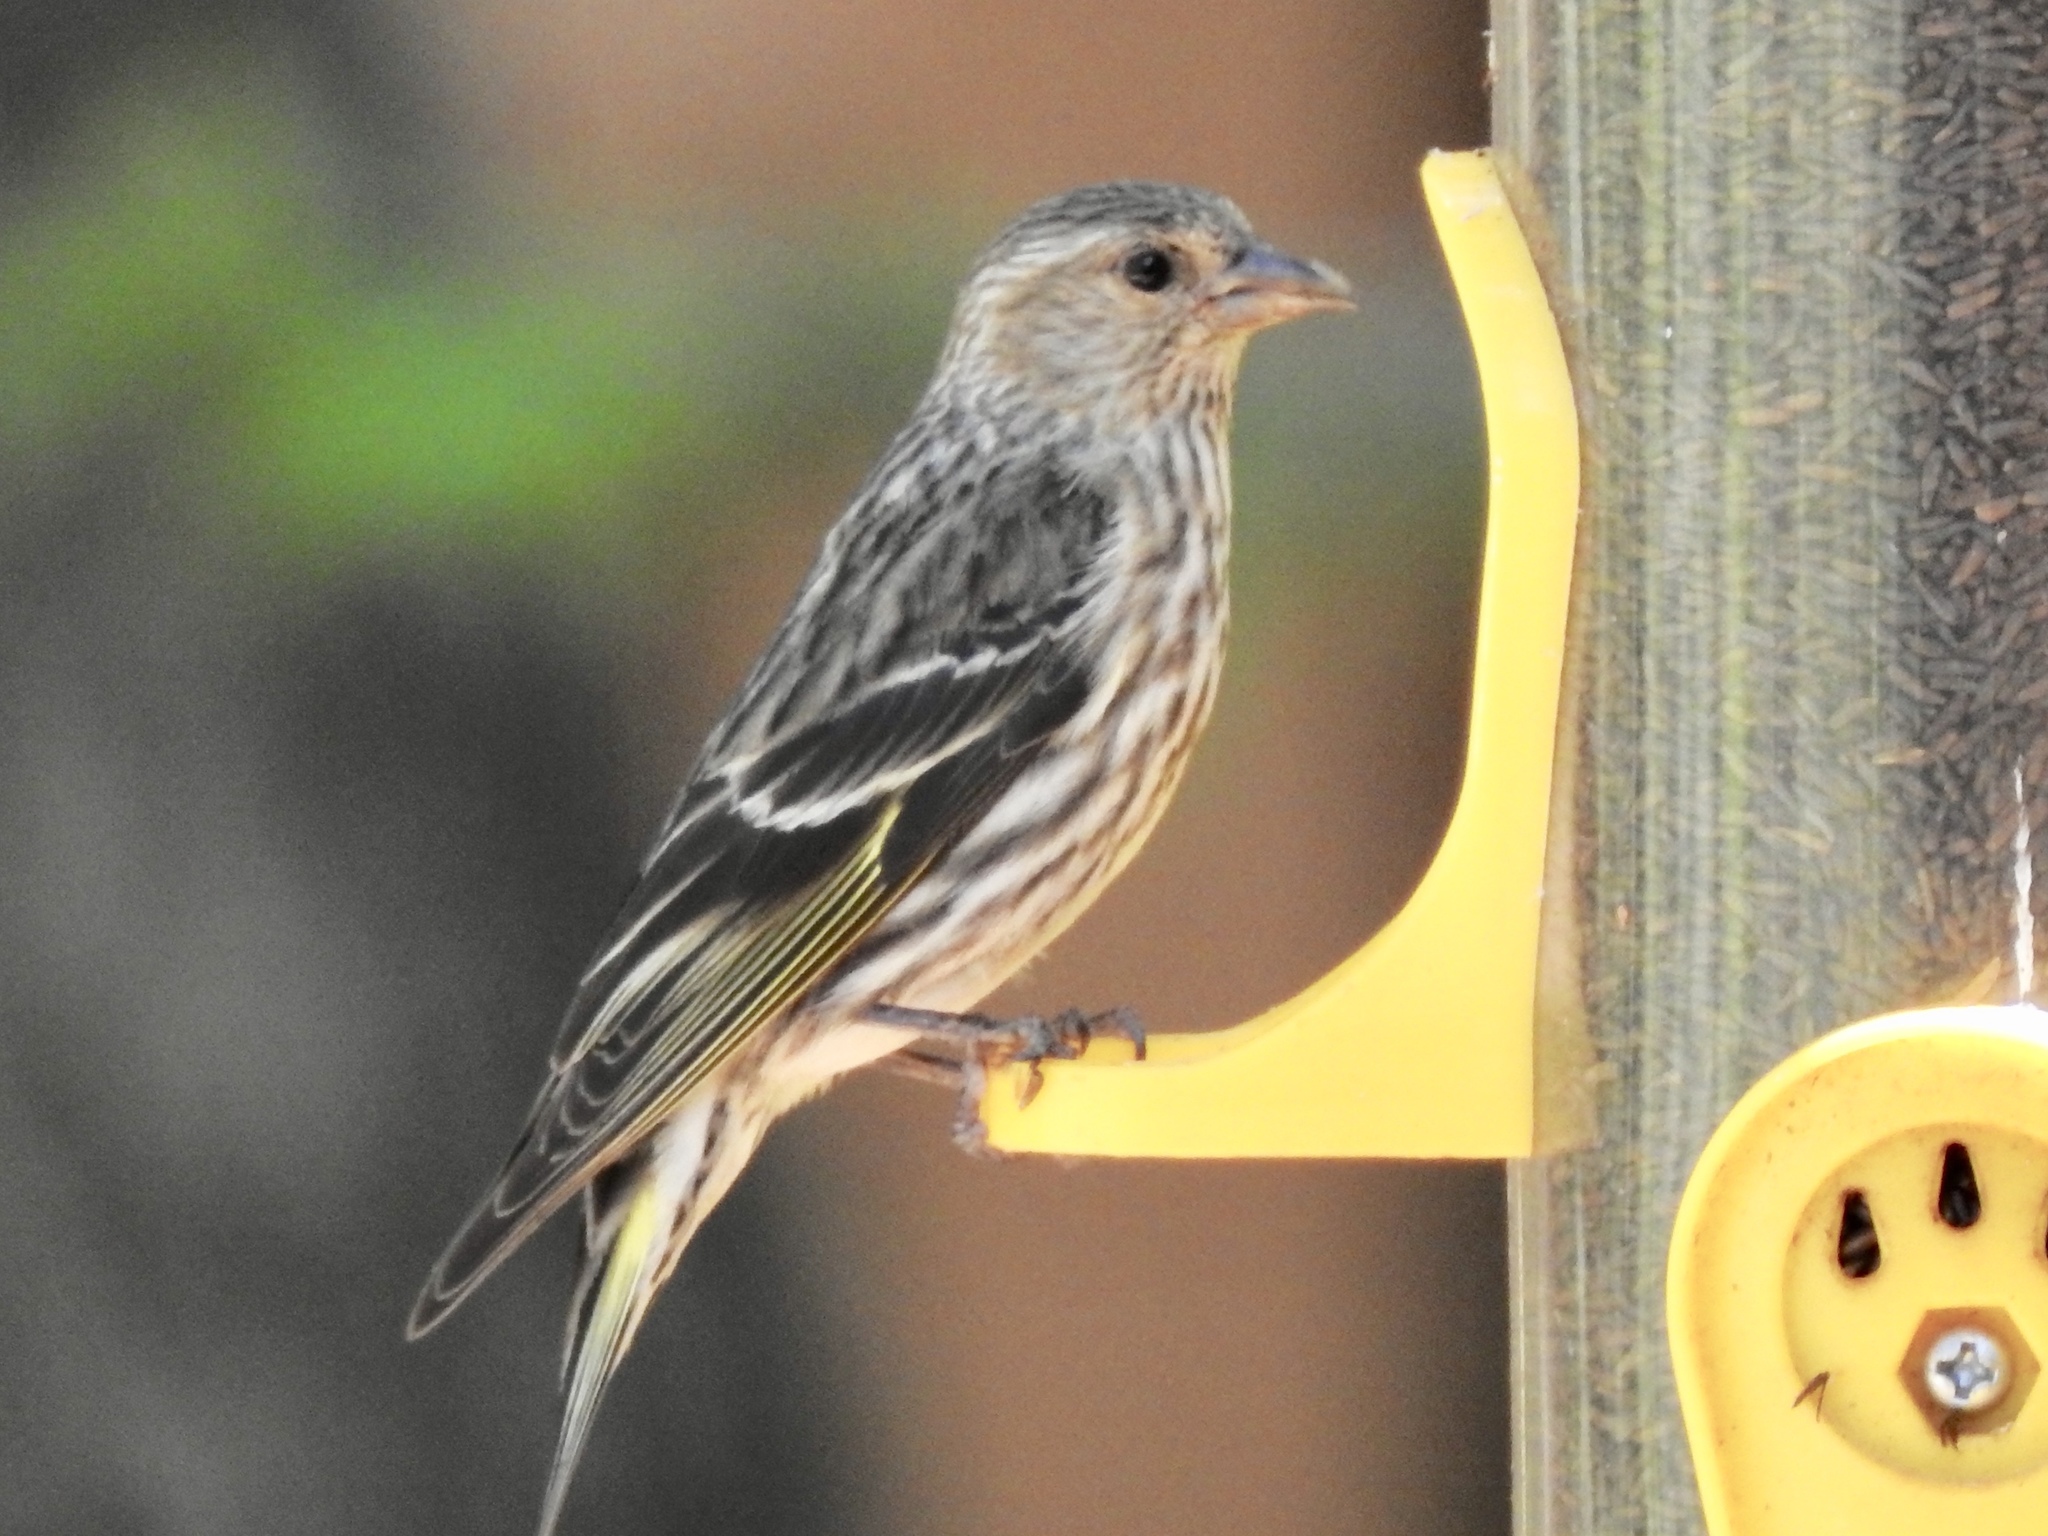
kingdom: Animalia
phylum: Chordata
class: Aves
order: Passeriformes
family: Fringillidae
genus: Spinus
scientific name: Spinus pinus
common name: Pine siskin
